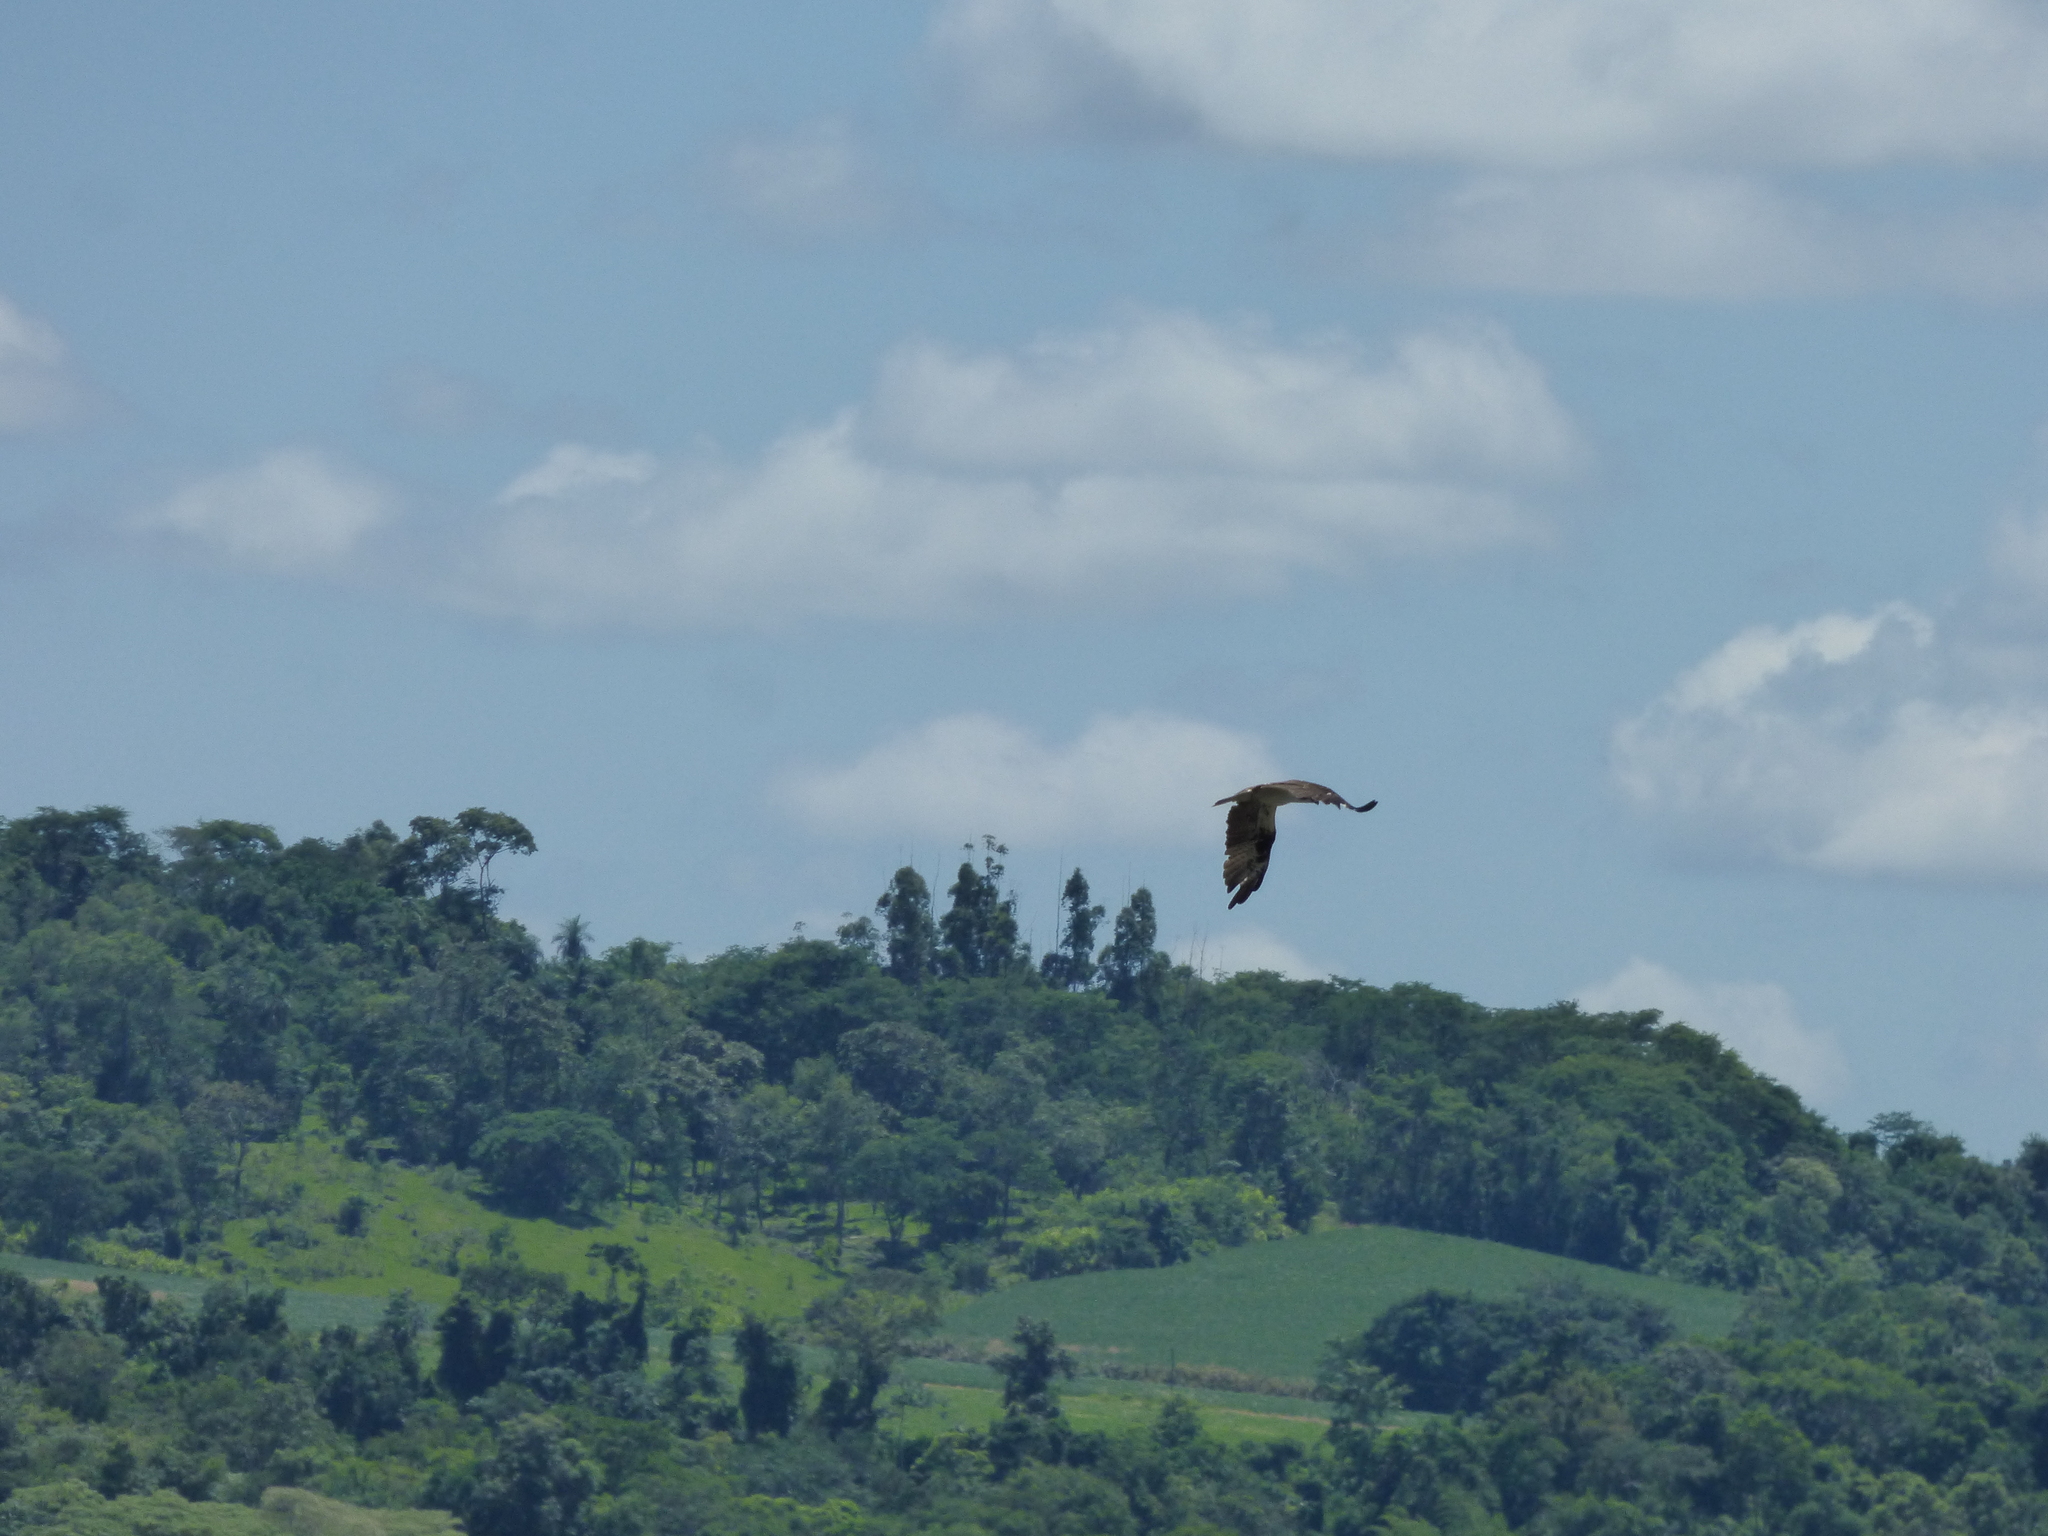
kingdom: Animalia
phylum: Chordata
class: Aves
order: Accipitriformes
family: Pandionidae
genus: Pandion
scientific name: Pandion haliaetus
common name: Osprey
